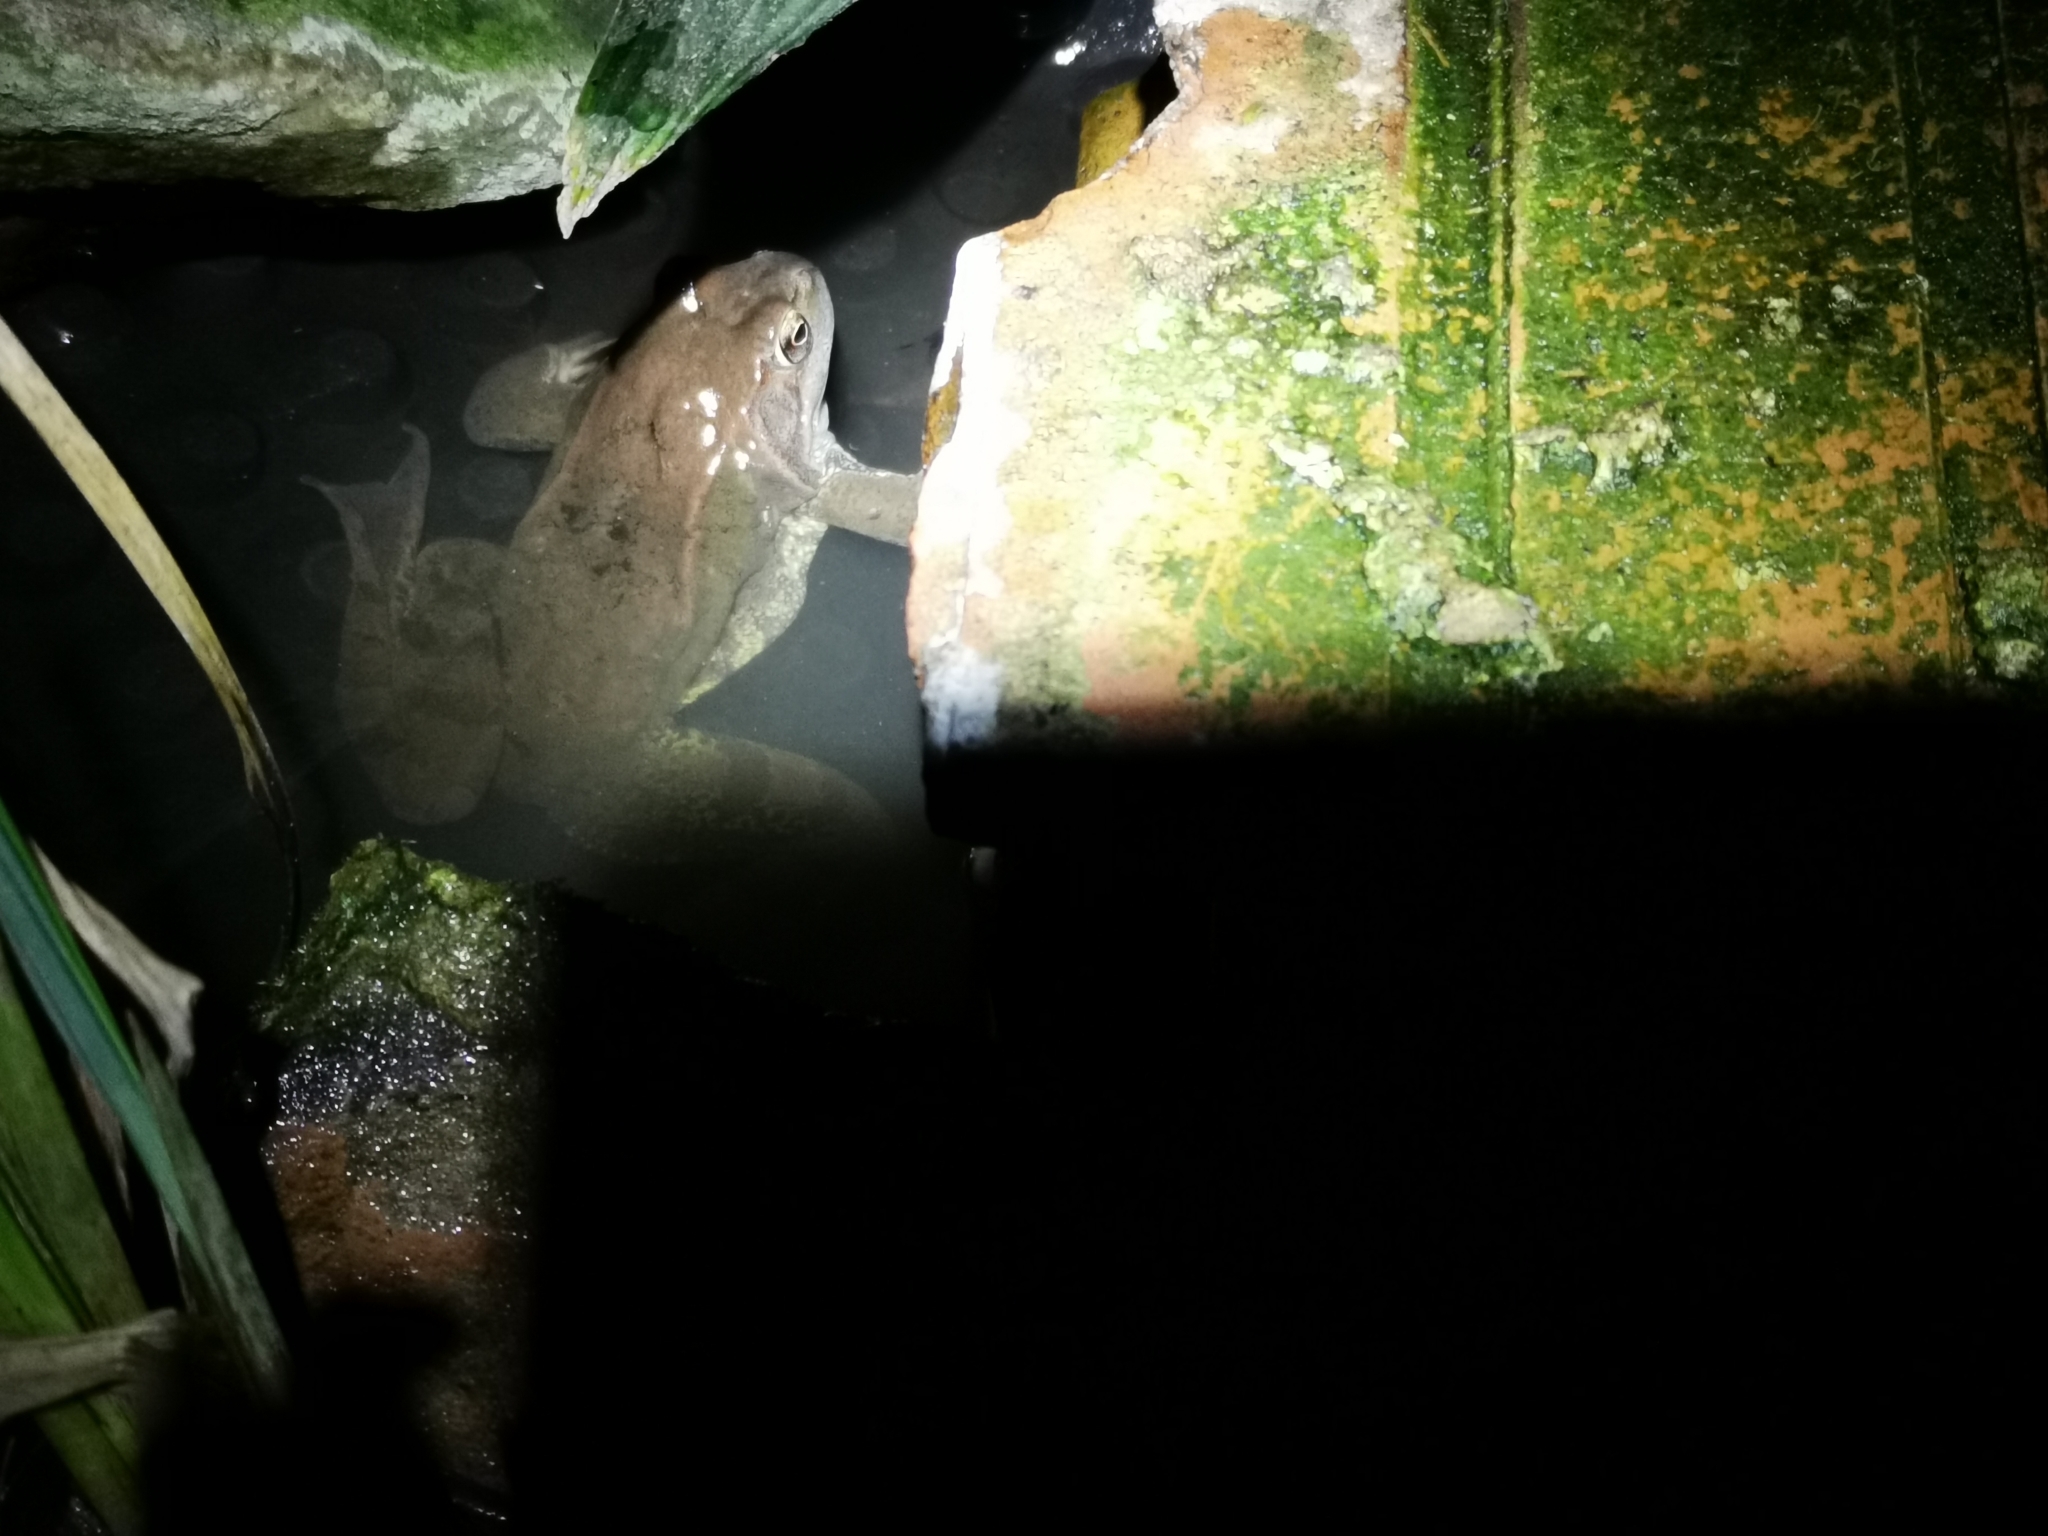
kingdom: Animalia
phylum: Chordata
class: Amphibia
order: Anura
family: Ranidae
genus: Rana
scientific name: Rana temporaria
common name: Common frog
